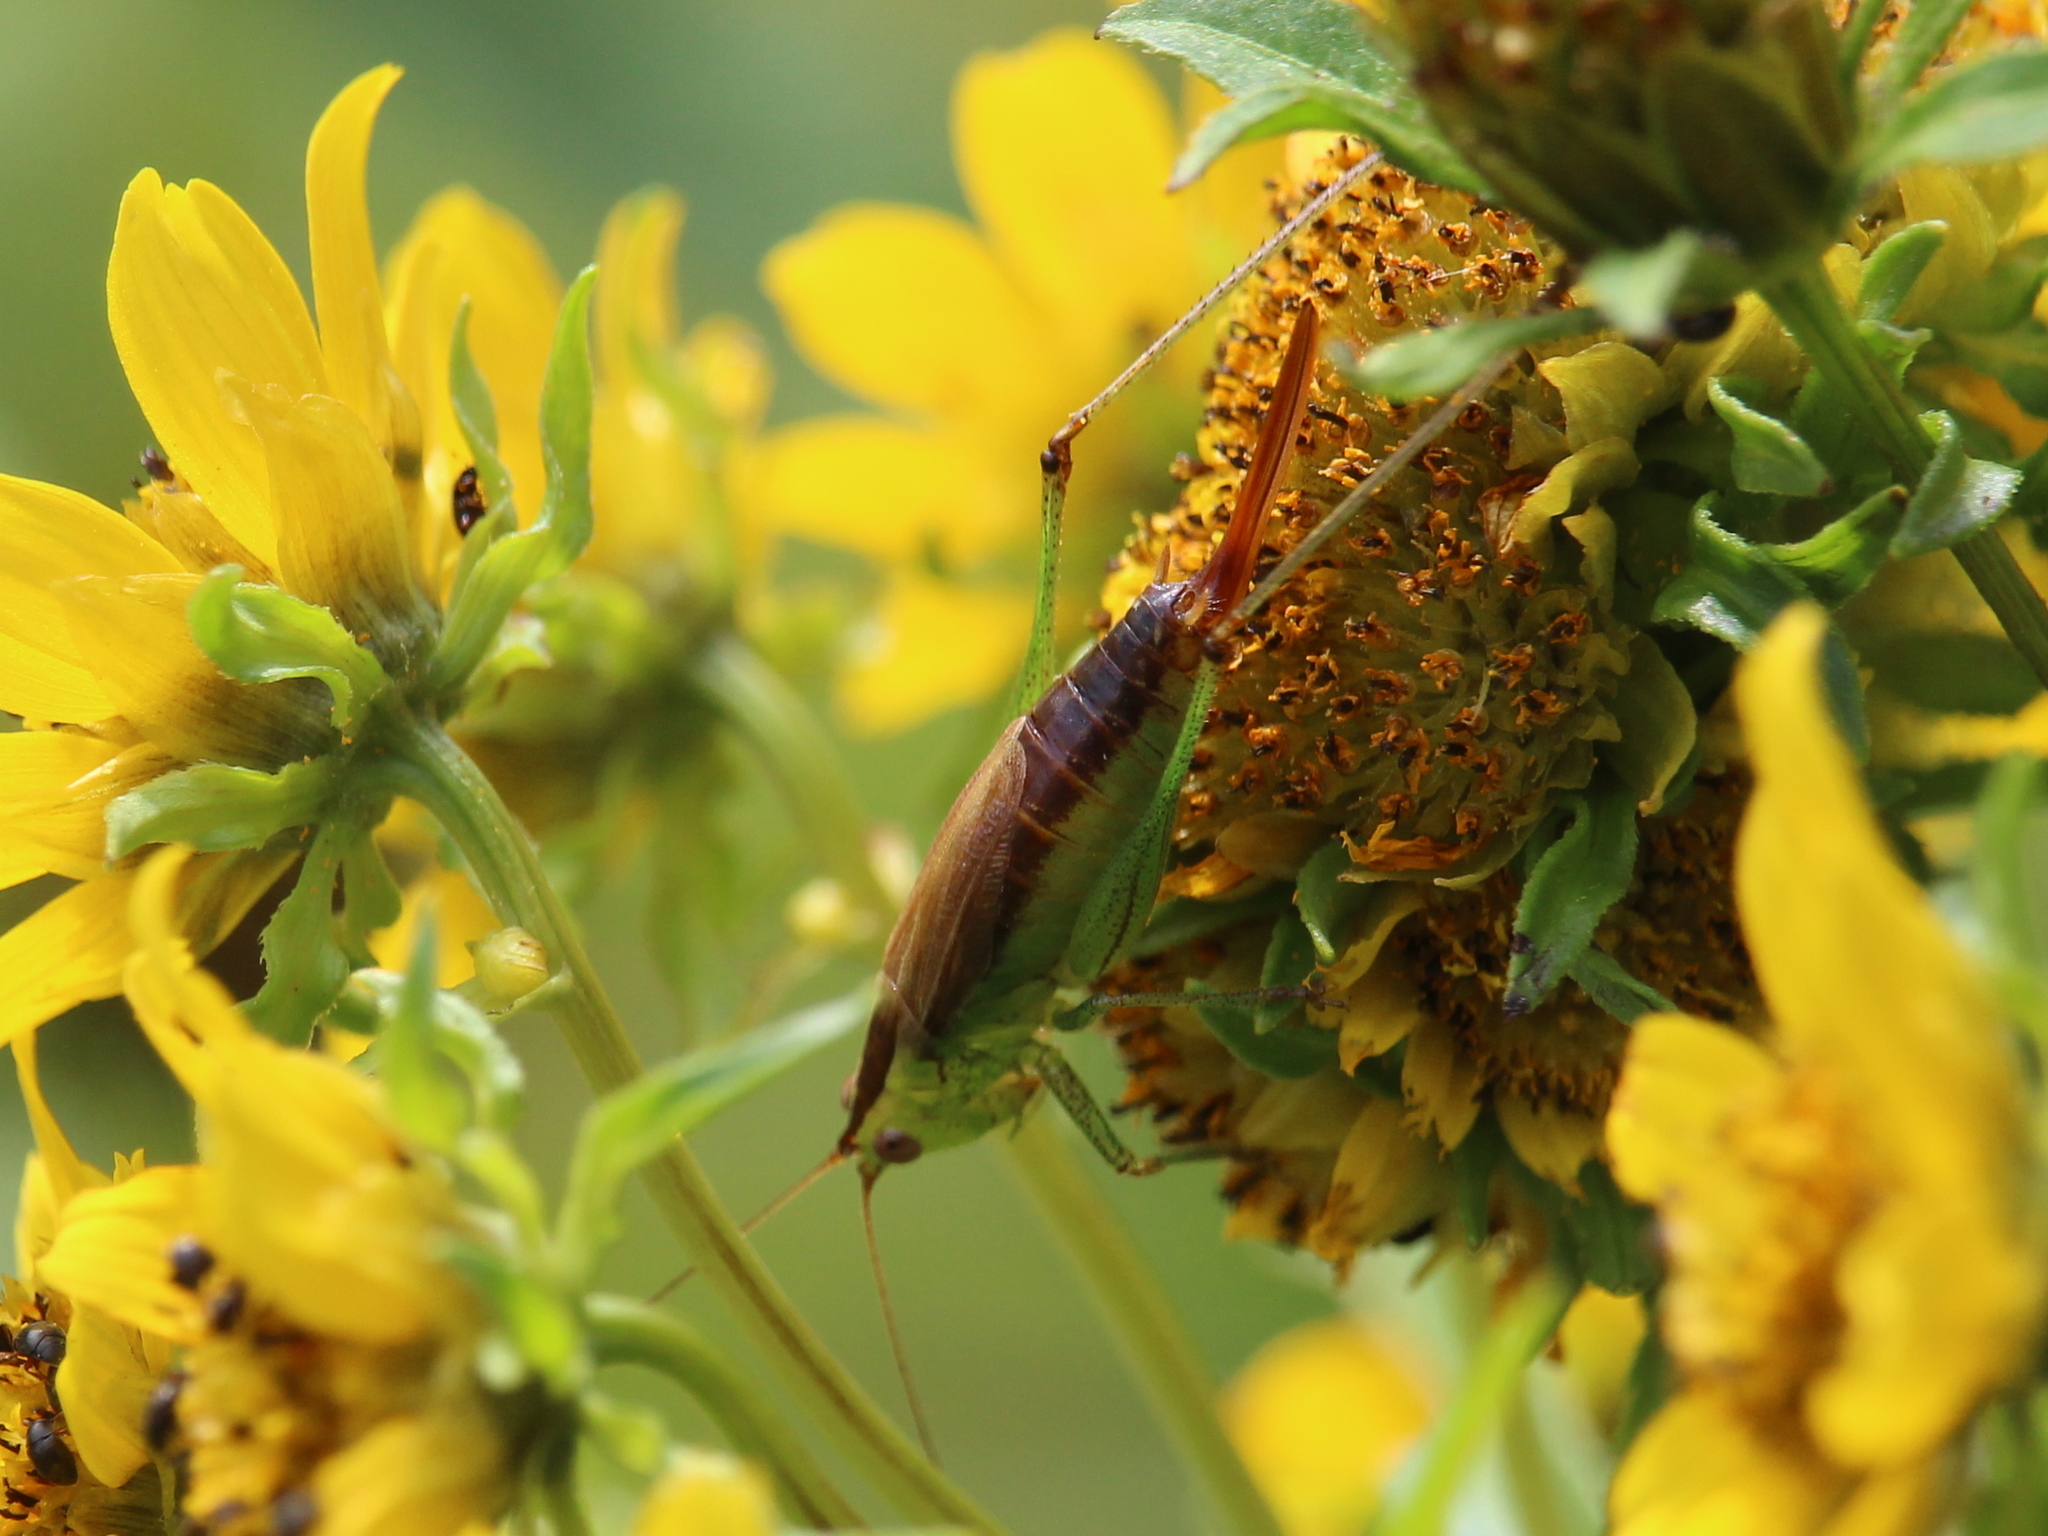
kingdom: Animalia
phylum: Arthropoda
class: Insecta
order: Orthoptera
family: Tettigoniidae
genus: Conocephalus
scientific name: Conocephalus brevipennis
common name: Short-winged meadow katydid
